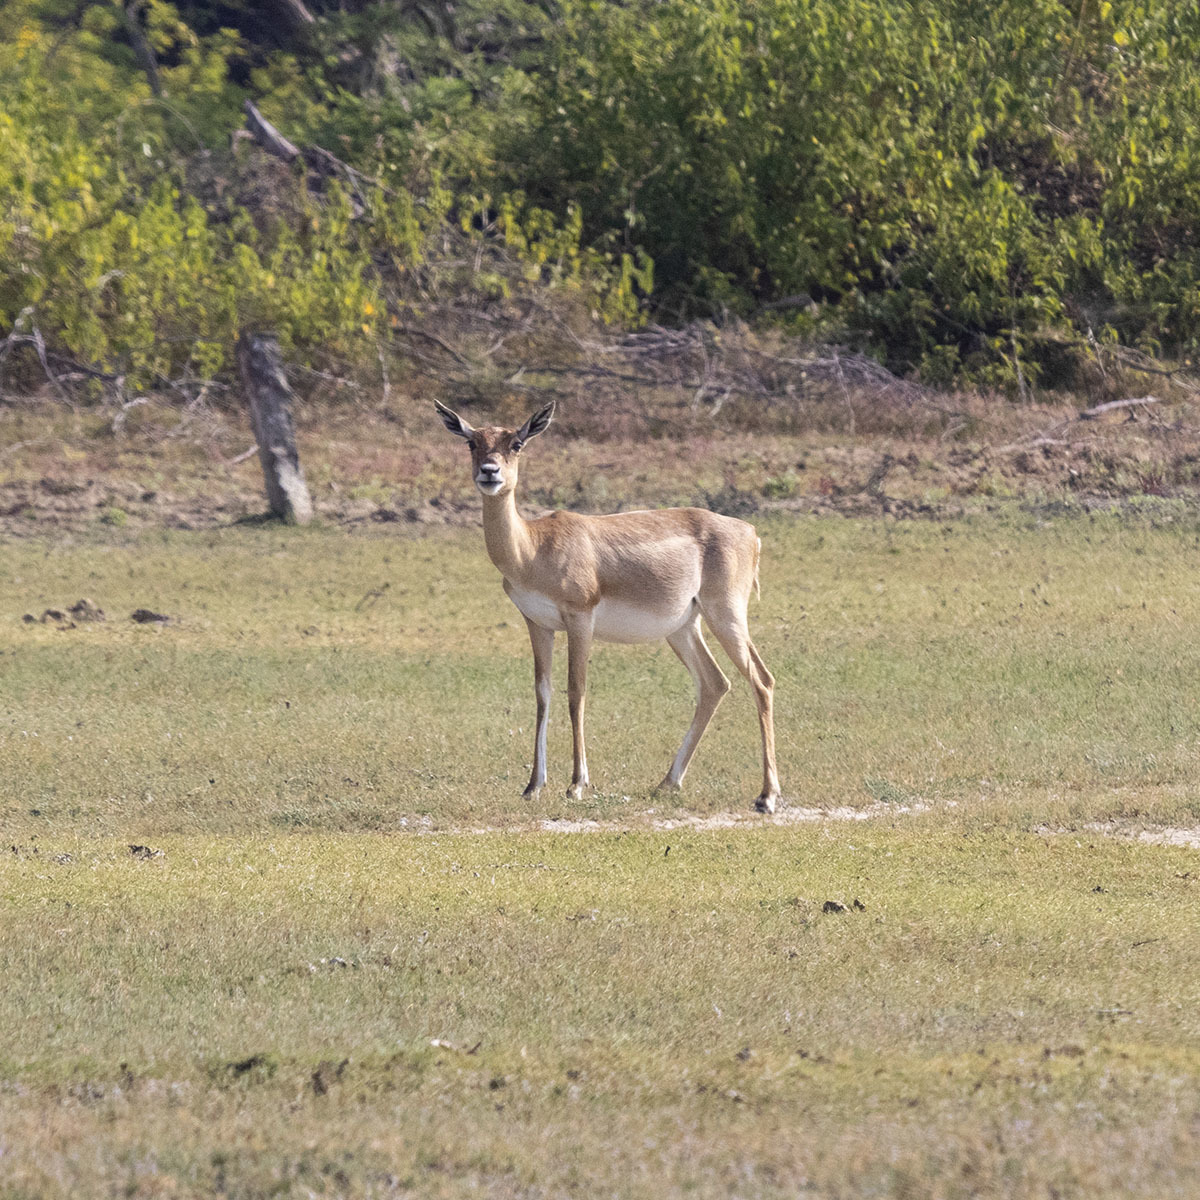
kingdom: Animalia
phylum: Chordata
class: Mammalia
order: Artiodactyla
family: Bovidae
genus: Antilope
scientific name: Antilope cervicapra
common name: Blackbuck
